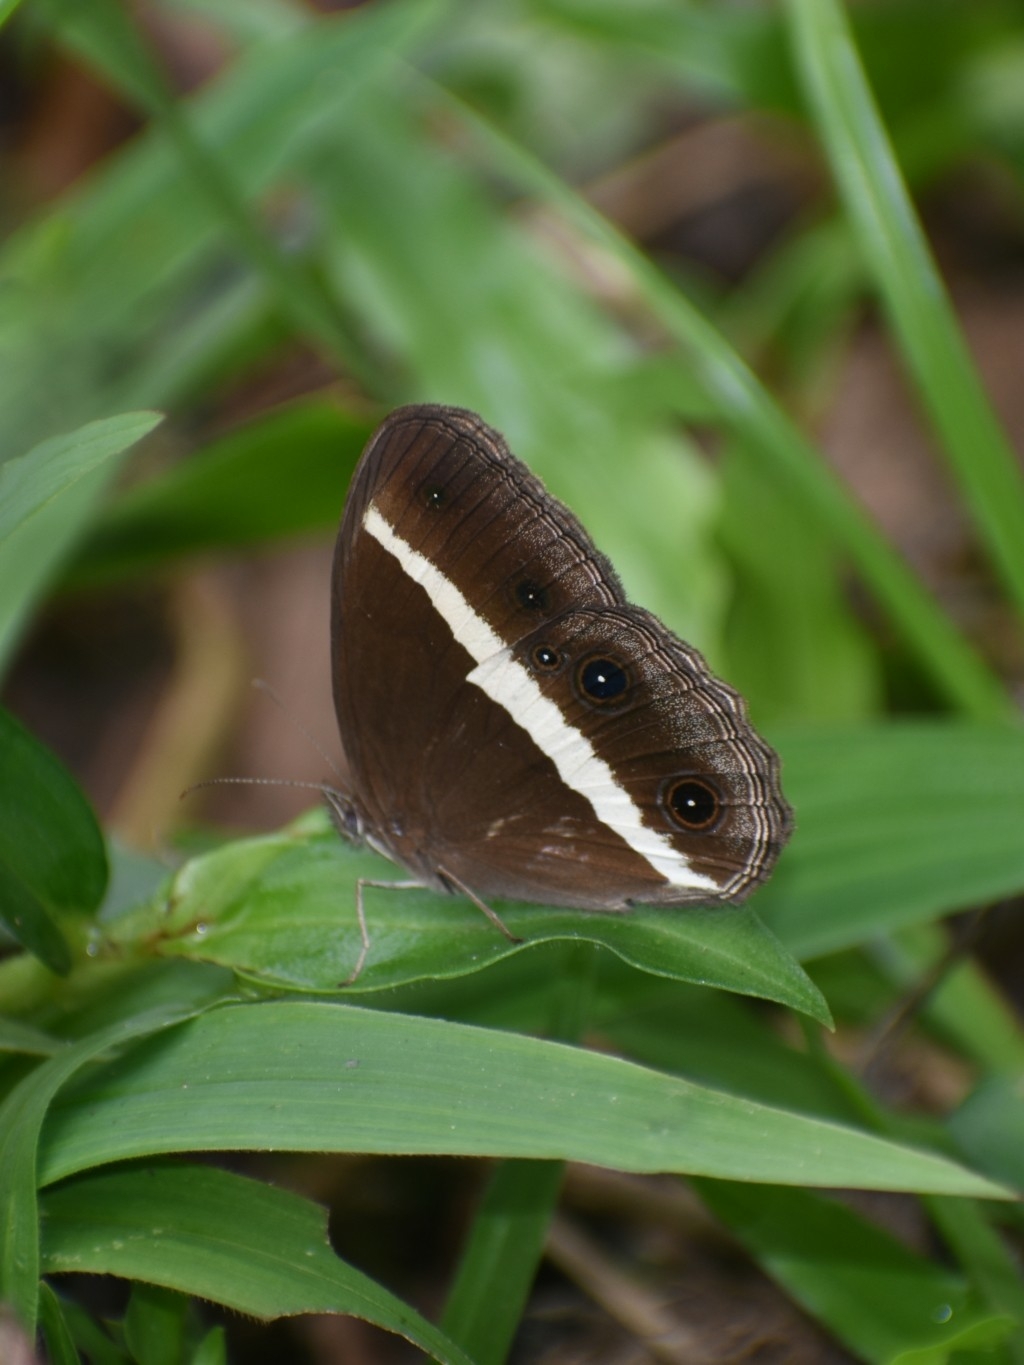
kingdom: Animalia
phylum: Arthropoda
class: Insecta
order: Lepidoptera
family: Nymphalidae
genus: Orsotriaena
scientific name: Orsotriaena medus
